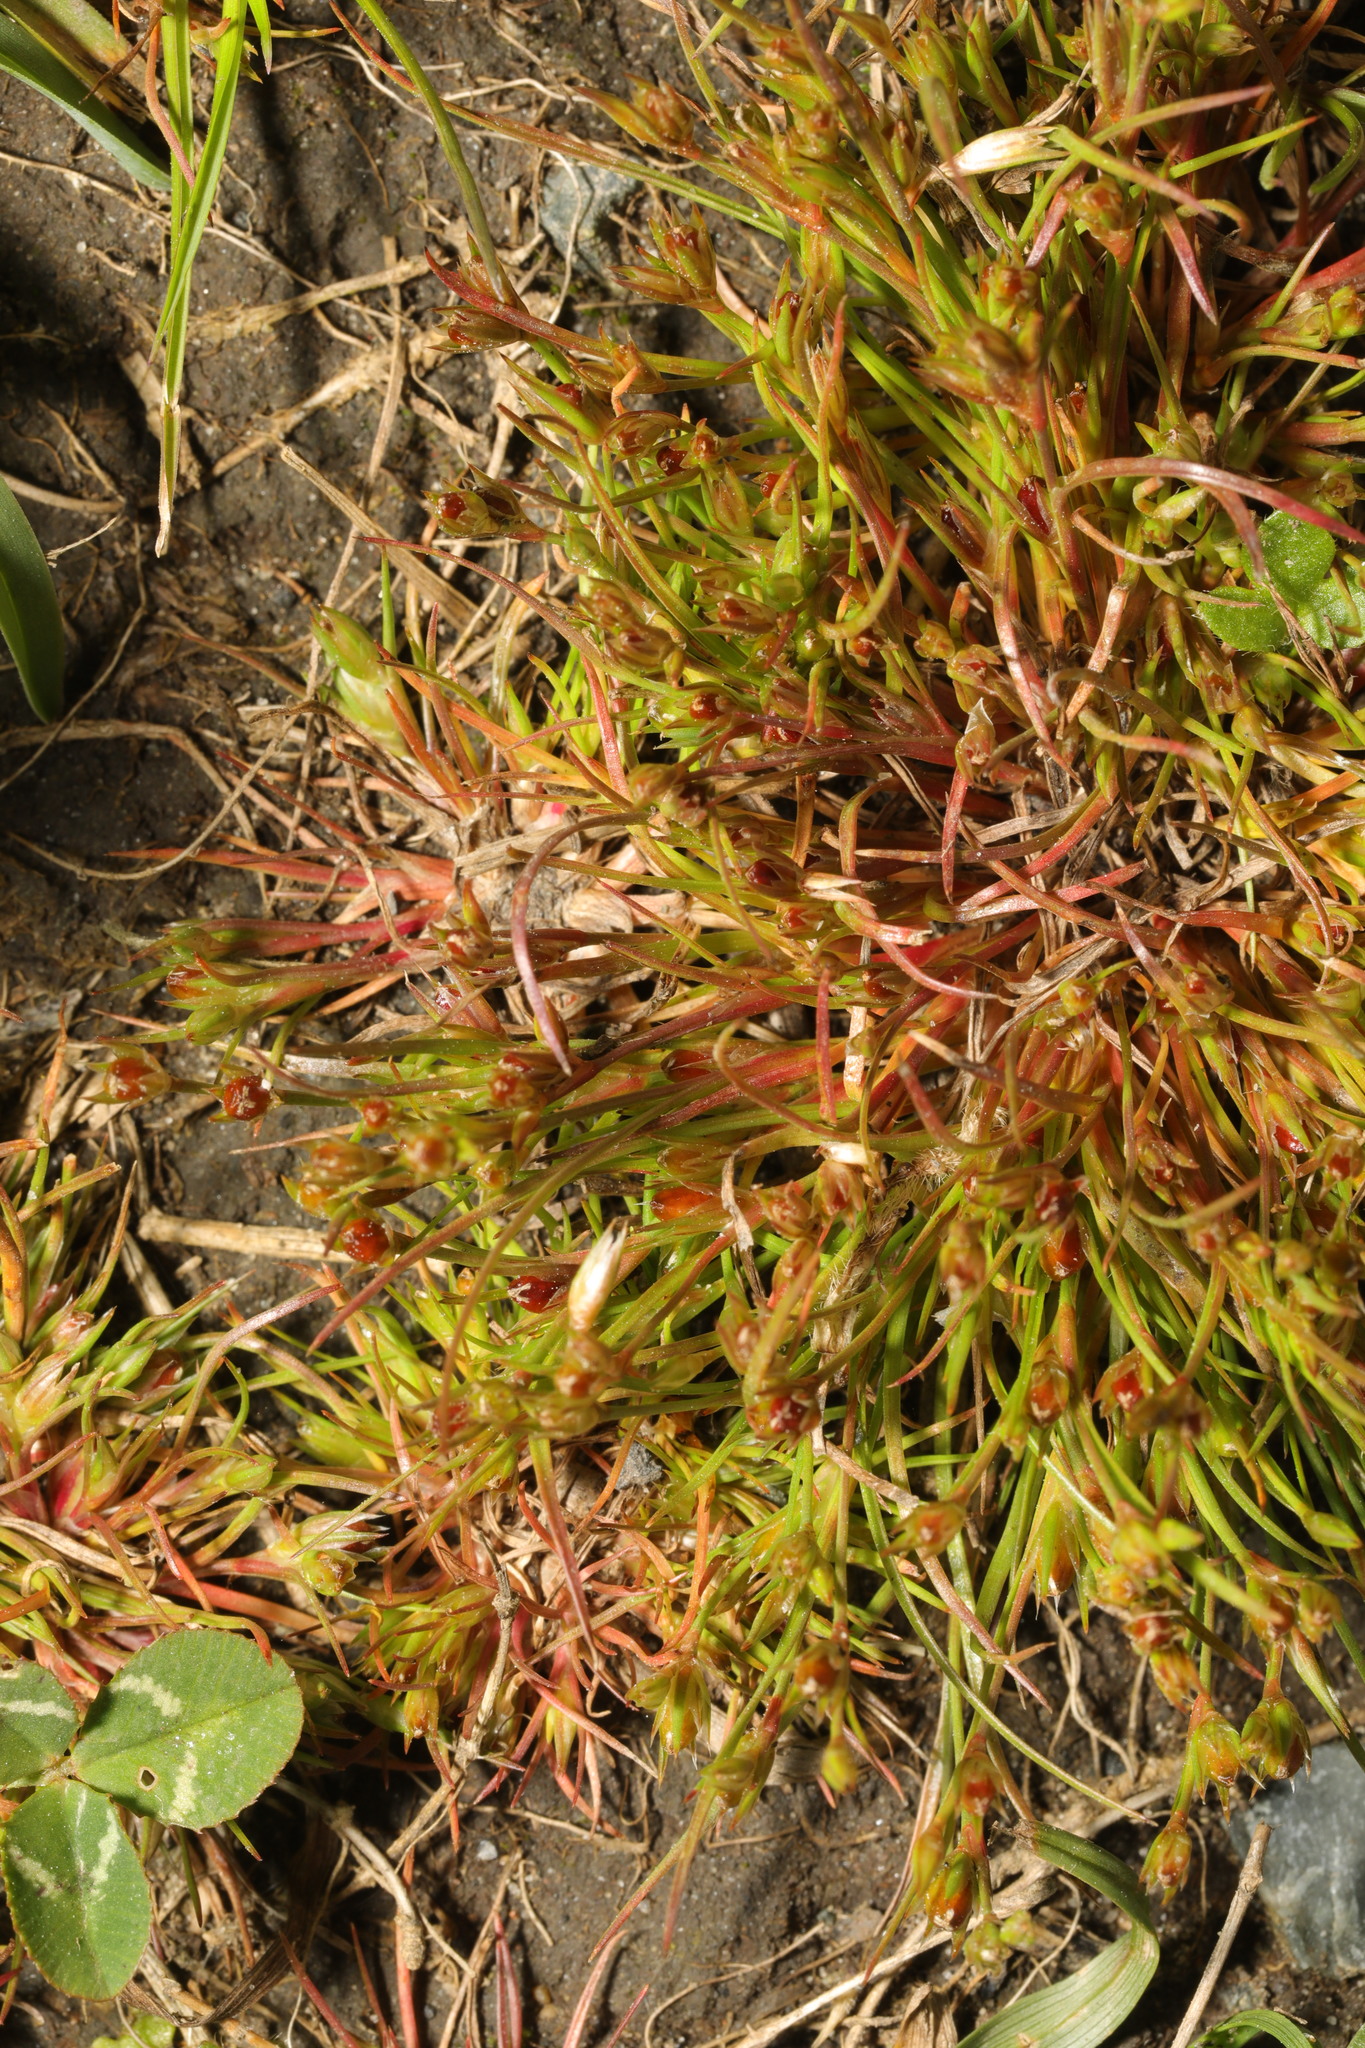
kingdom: Plantae
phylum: Tracheophyta
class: Liliopsida
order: Poales
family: Juncaceae
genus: Juncus
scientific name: Juncus bufonius
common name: Toad rush
